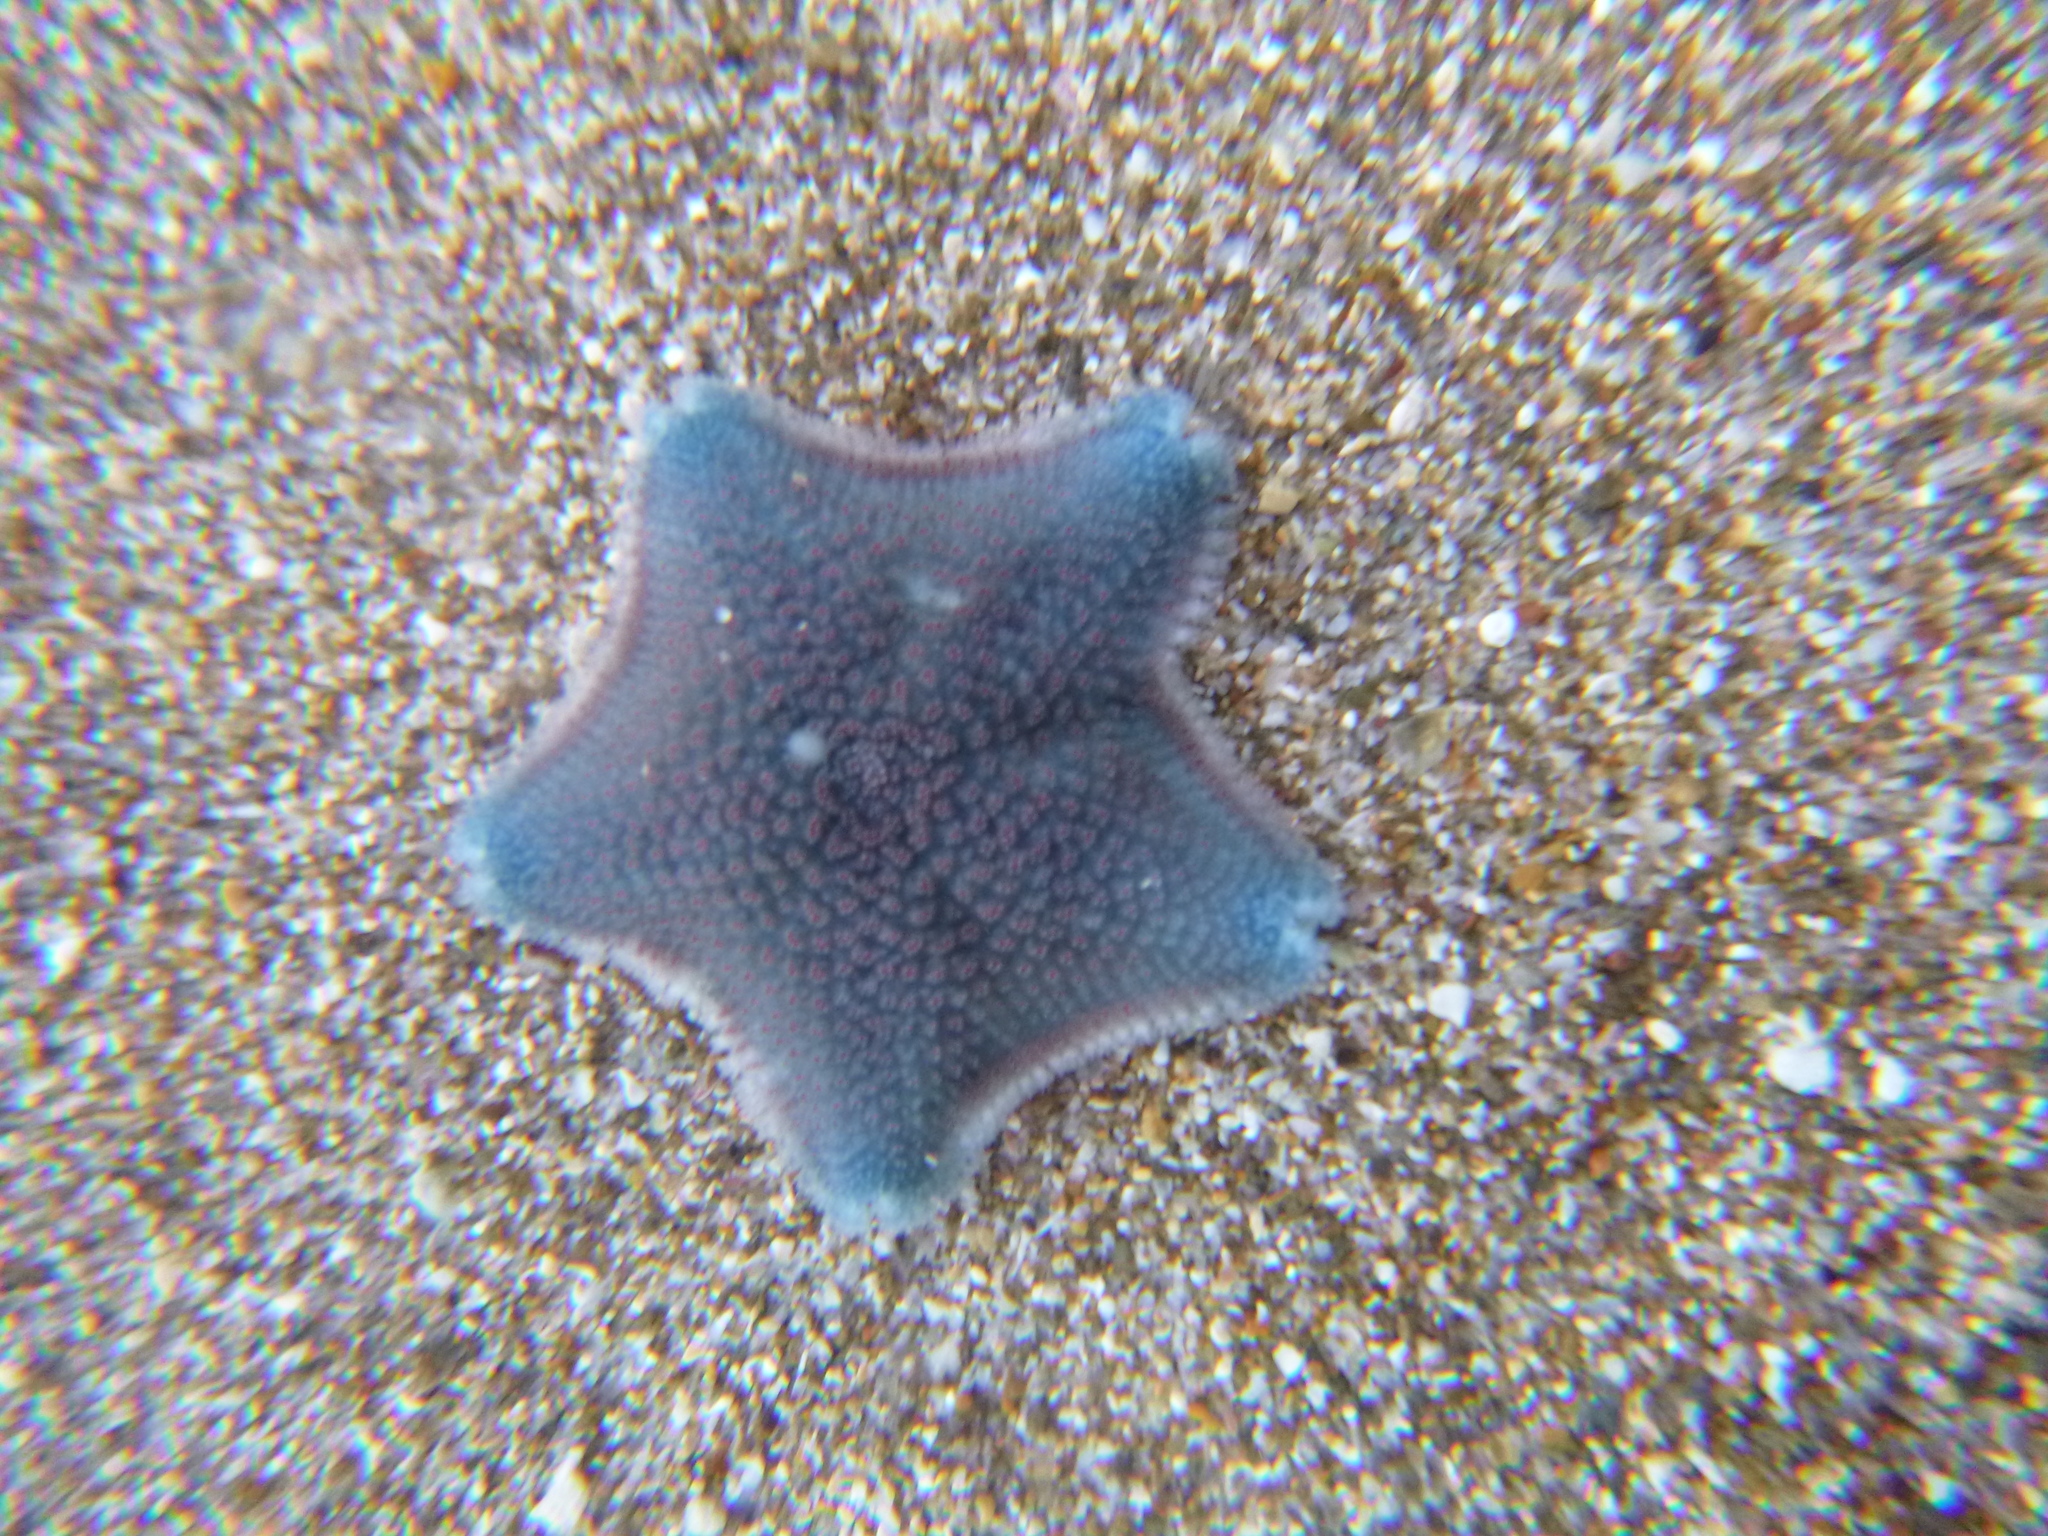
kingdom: Animalia
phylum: Echinodermata
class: Asteroidea
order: Valvatida
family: Asterinidae
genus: Patiriella
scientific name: Patiriella regularis
